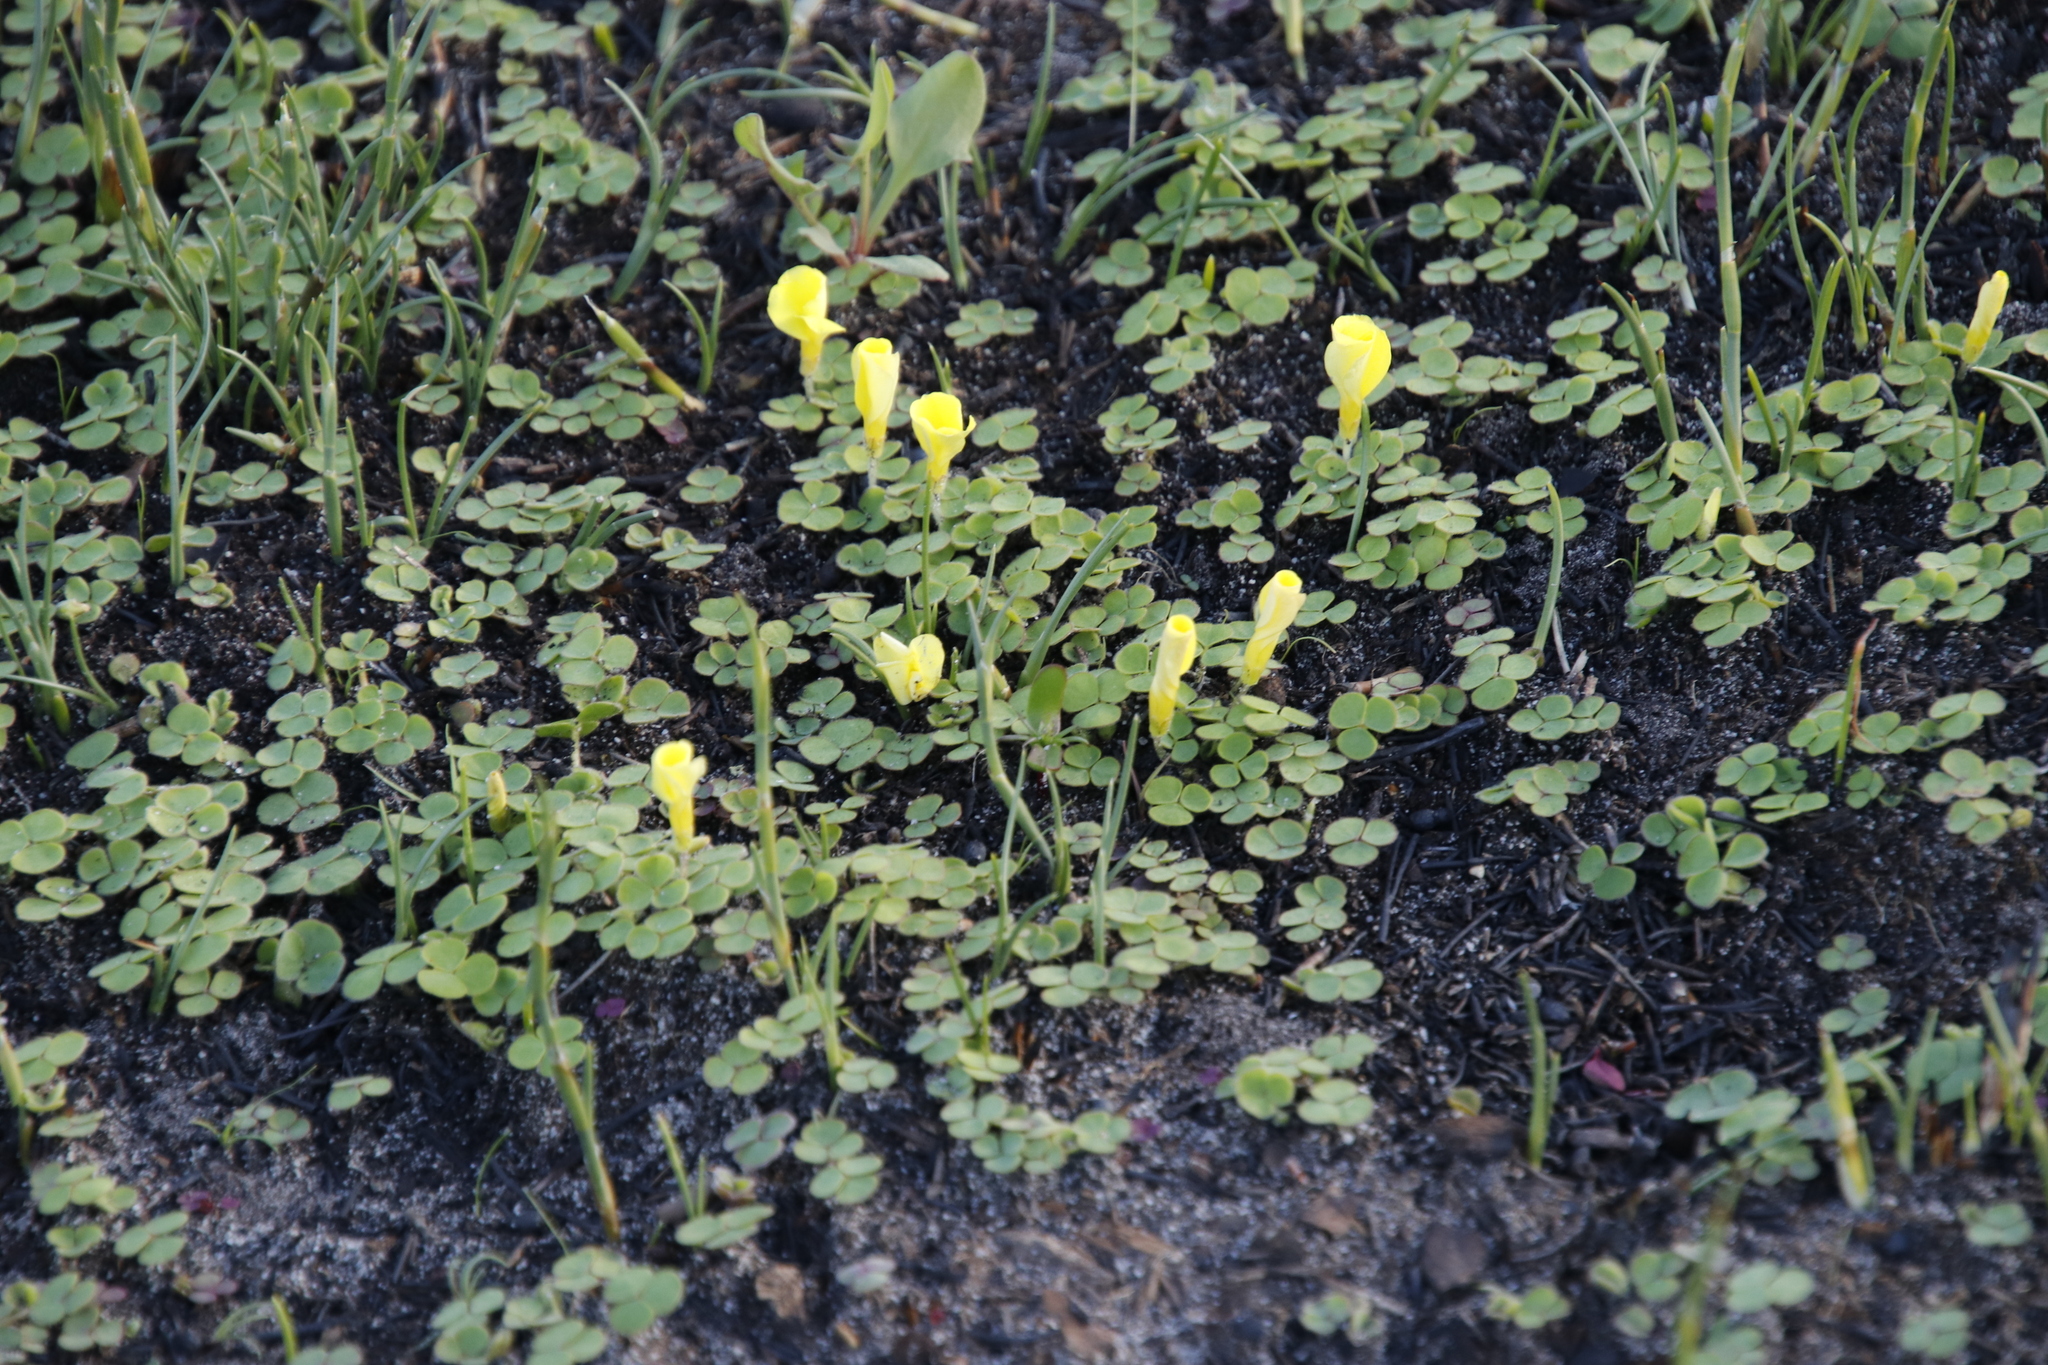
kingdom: Plantae
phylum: Tracheophyta
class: Magnoliopsida
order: Oxalidales
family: Oxalidaceae
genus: Oxalis
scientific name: Oxalis luteola
